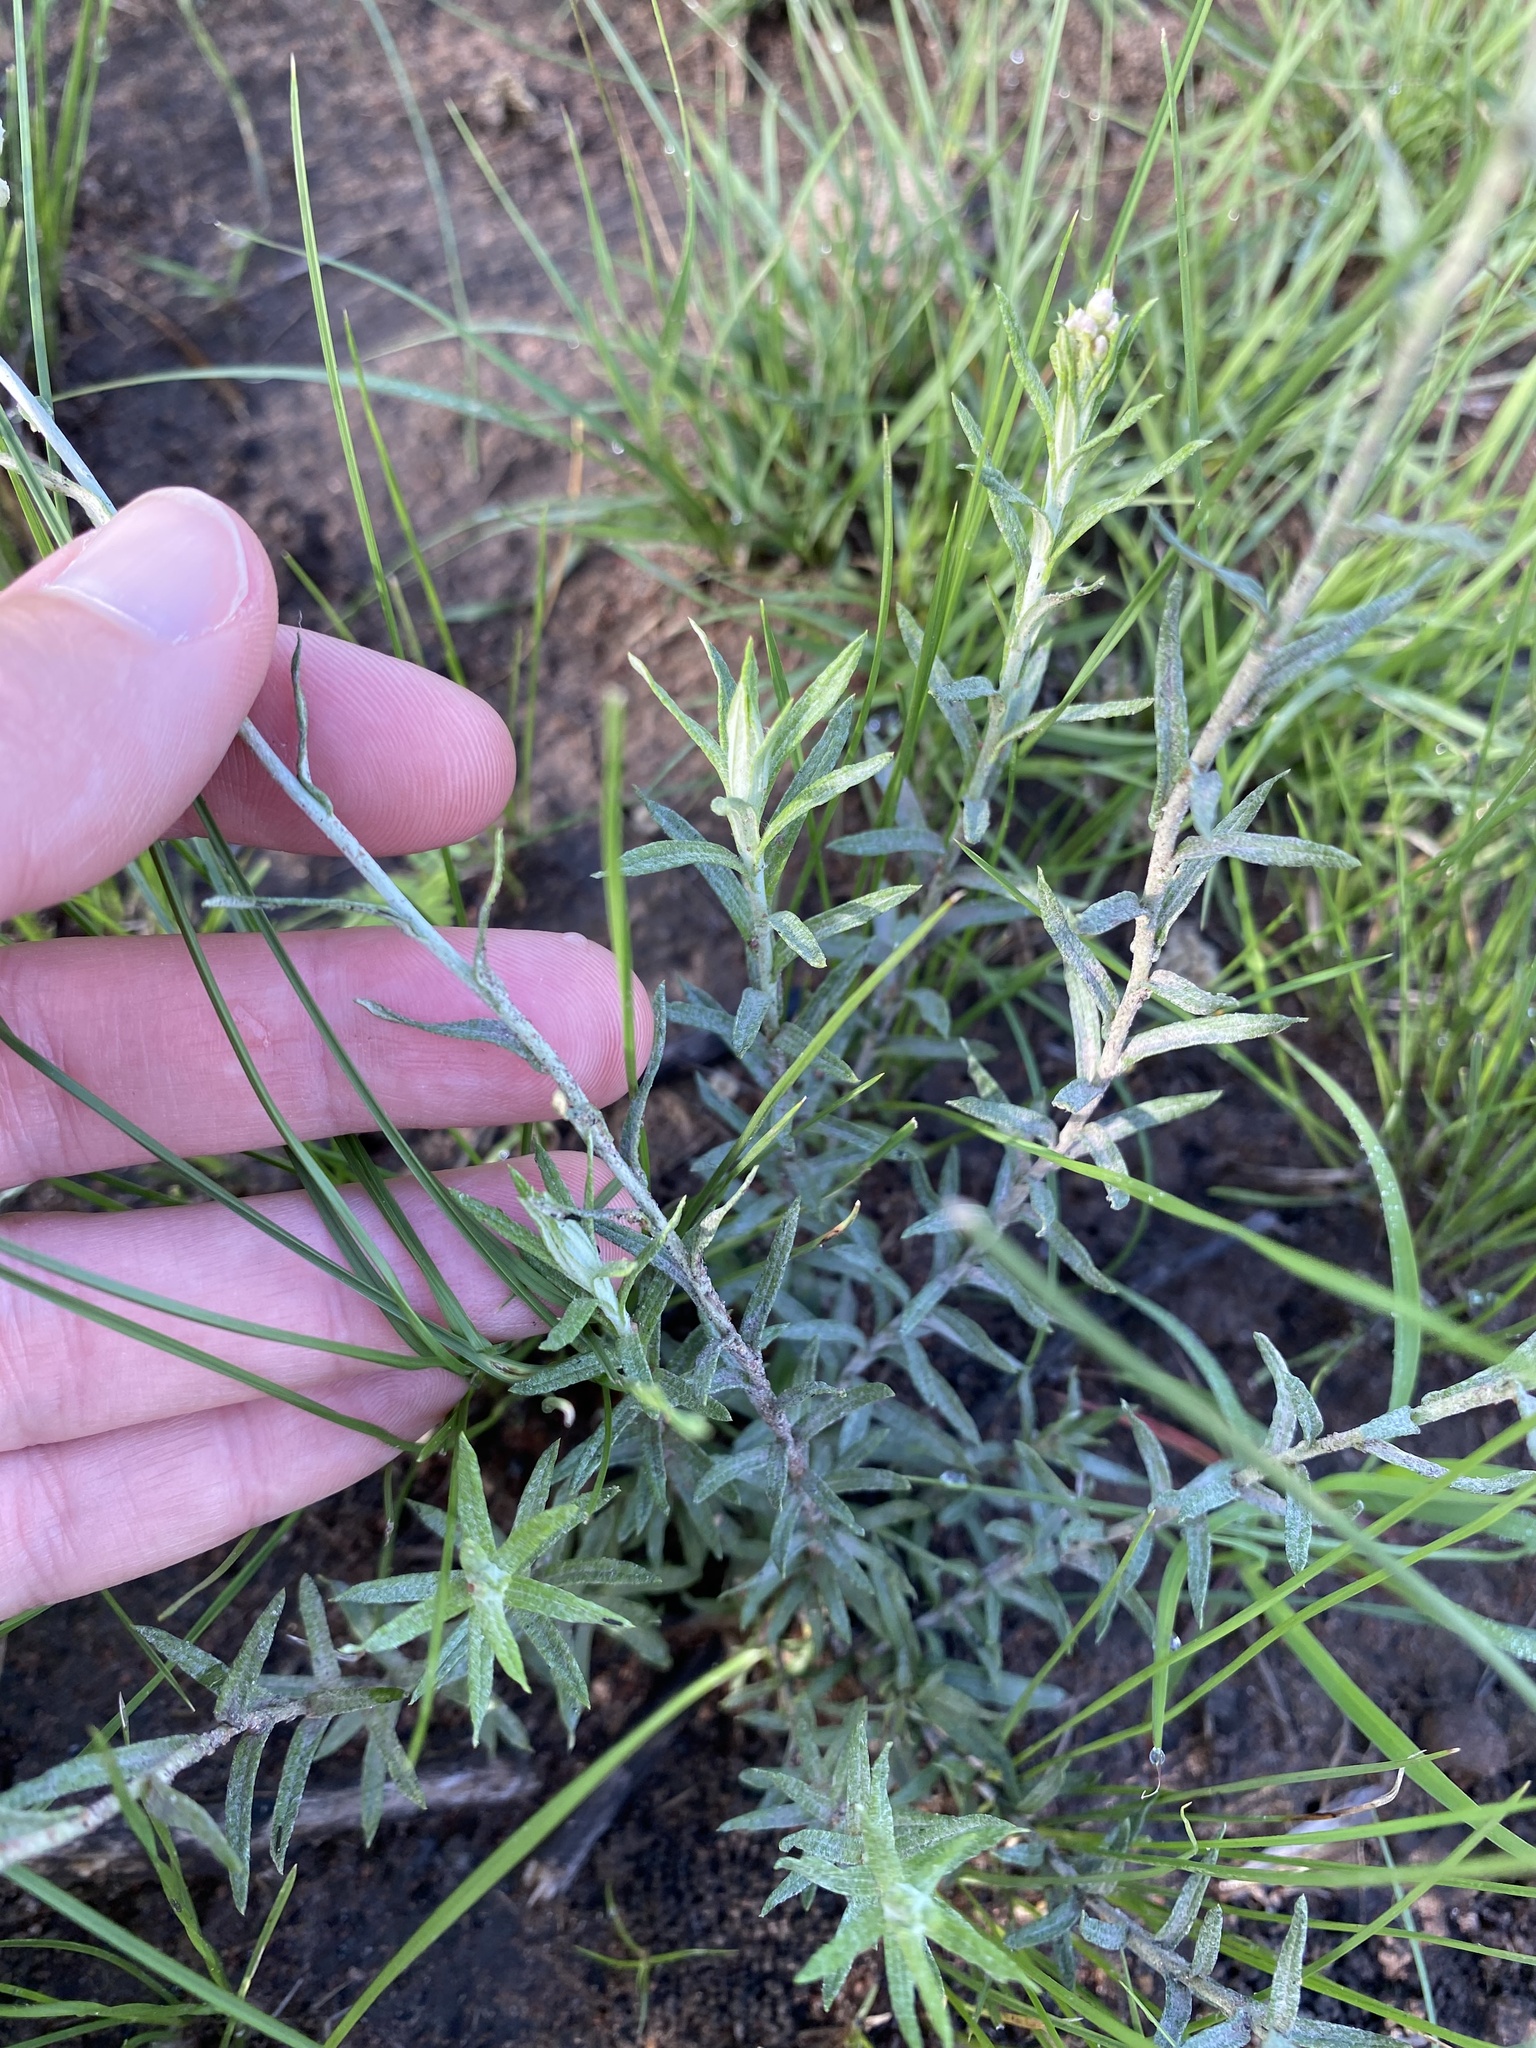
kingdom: Plantae
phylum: Tracheophyta
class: Magnoliopsida
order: Asterales
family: Asteraceae
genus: Helichrysum
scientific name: Helichrysum rugulosum
